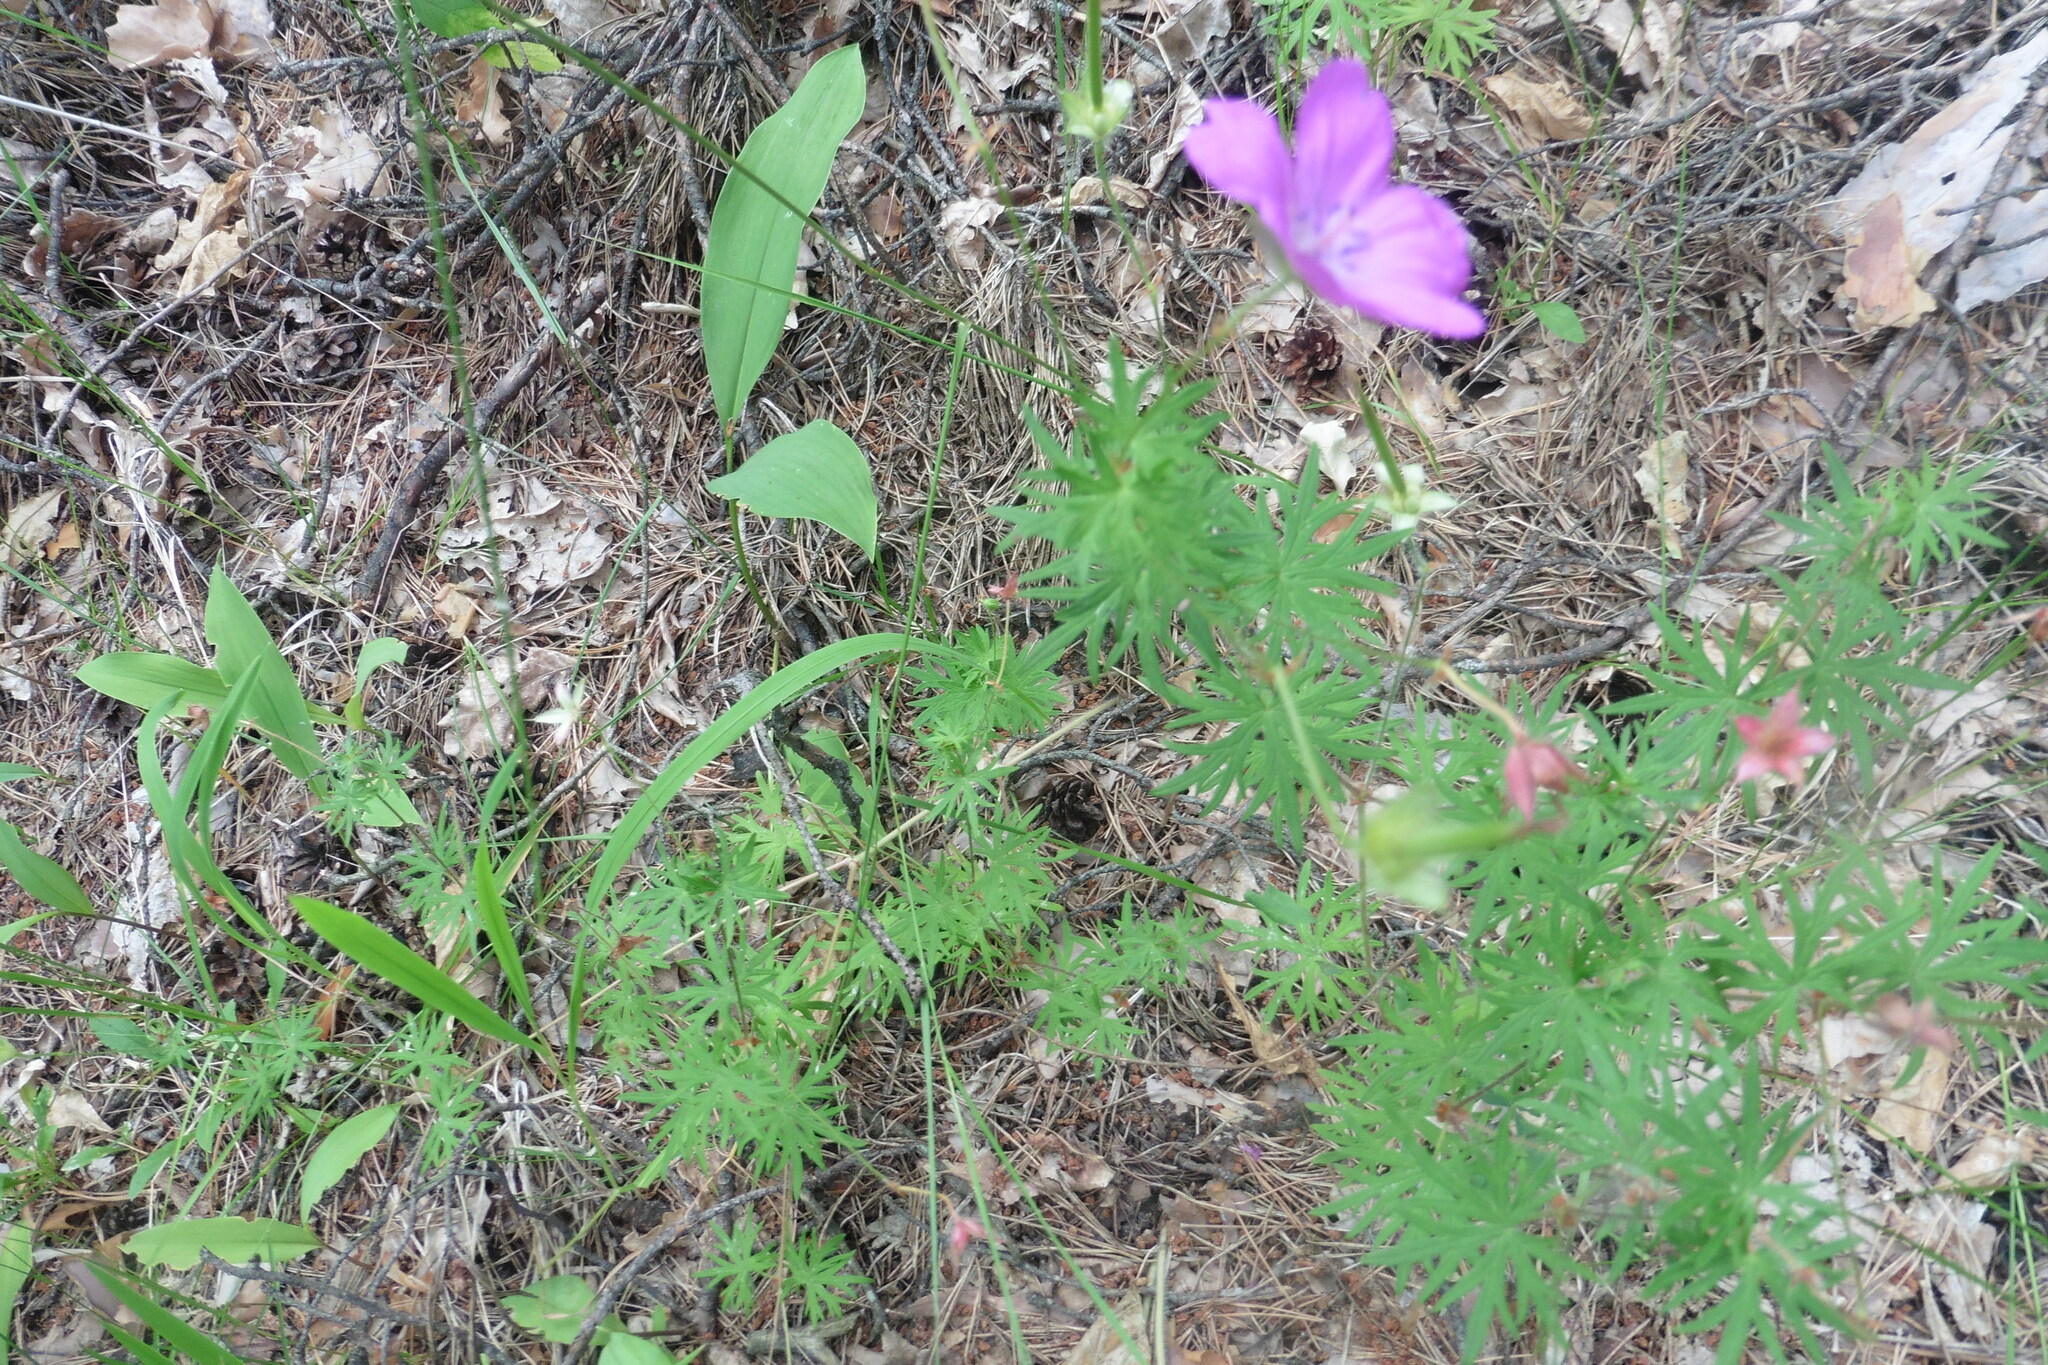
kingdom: Plantae
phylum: Tracheophyta
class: Magnoliopsida
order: Geraniales
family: Geraniaceae
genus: Geranium
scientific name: Geranium sanguineum
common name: Bloody crane's-bill
